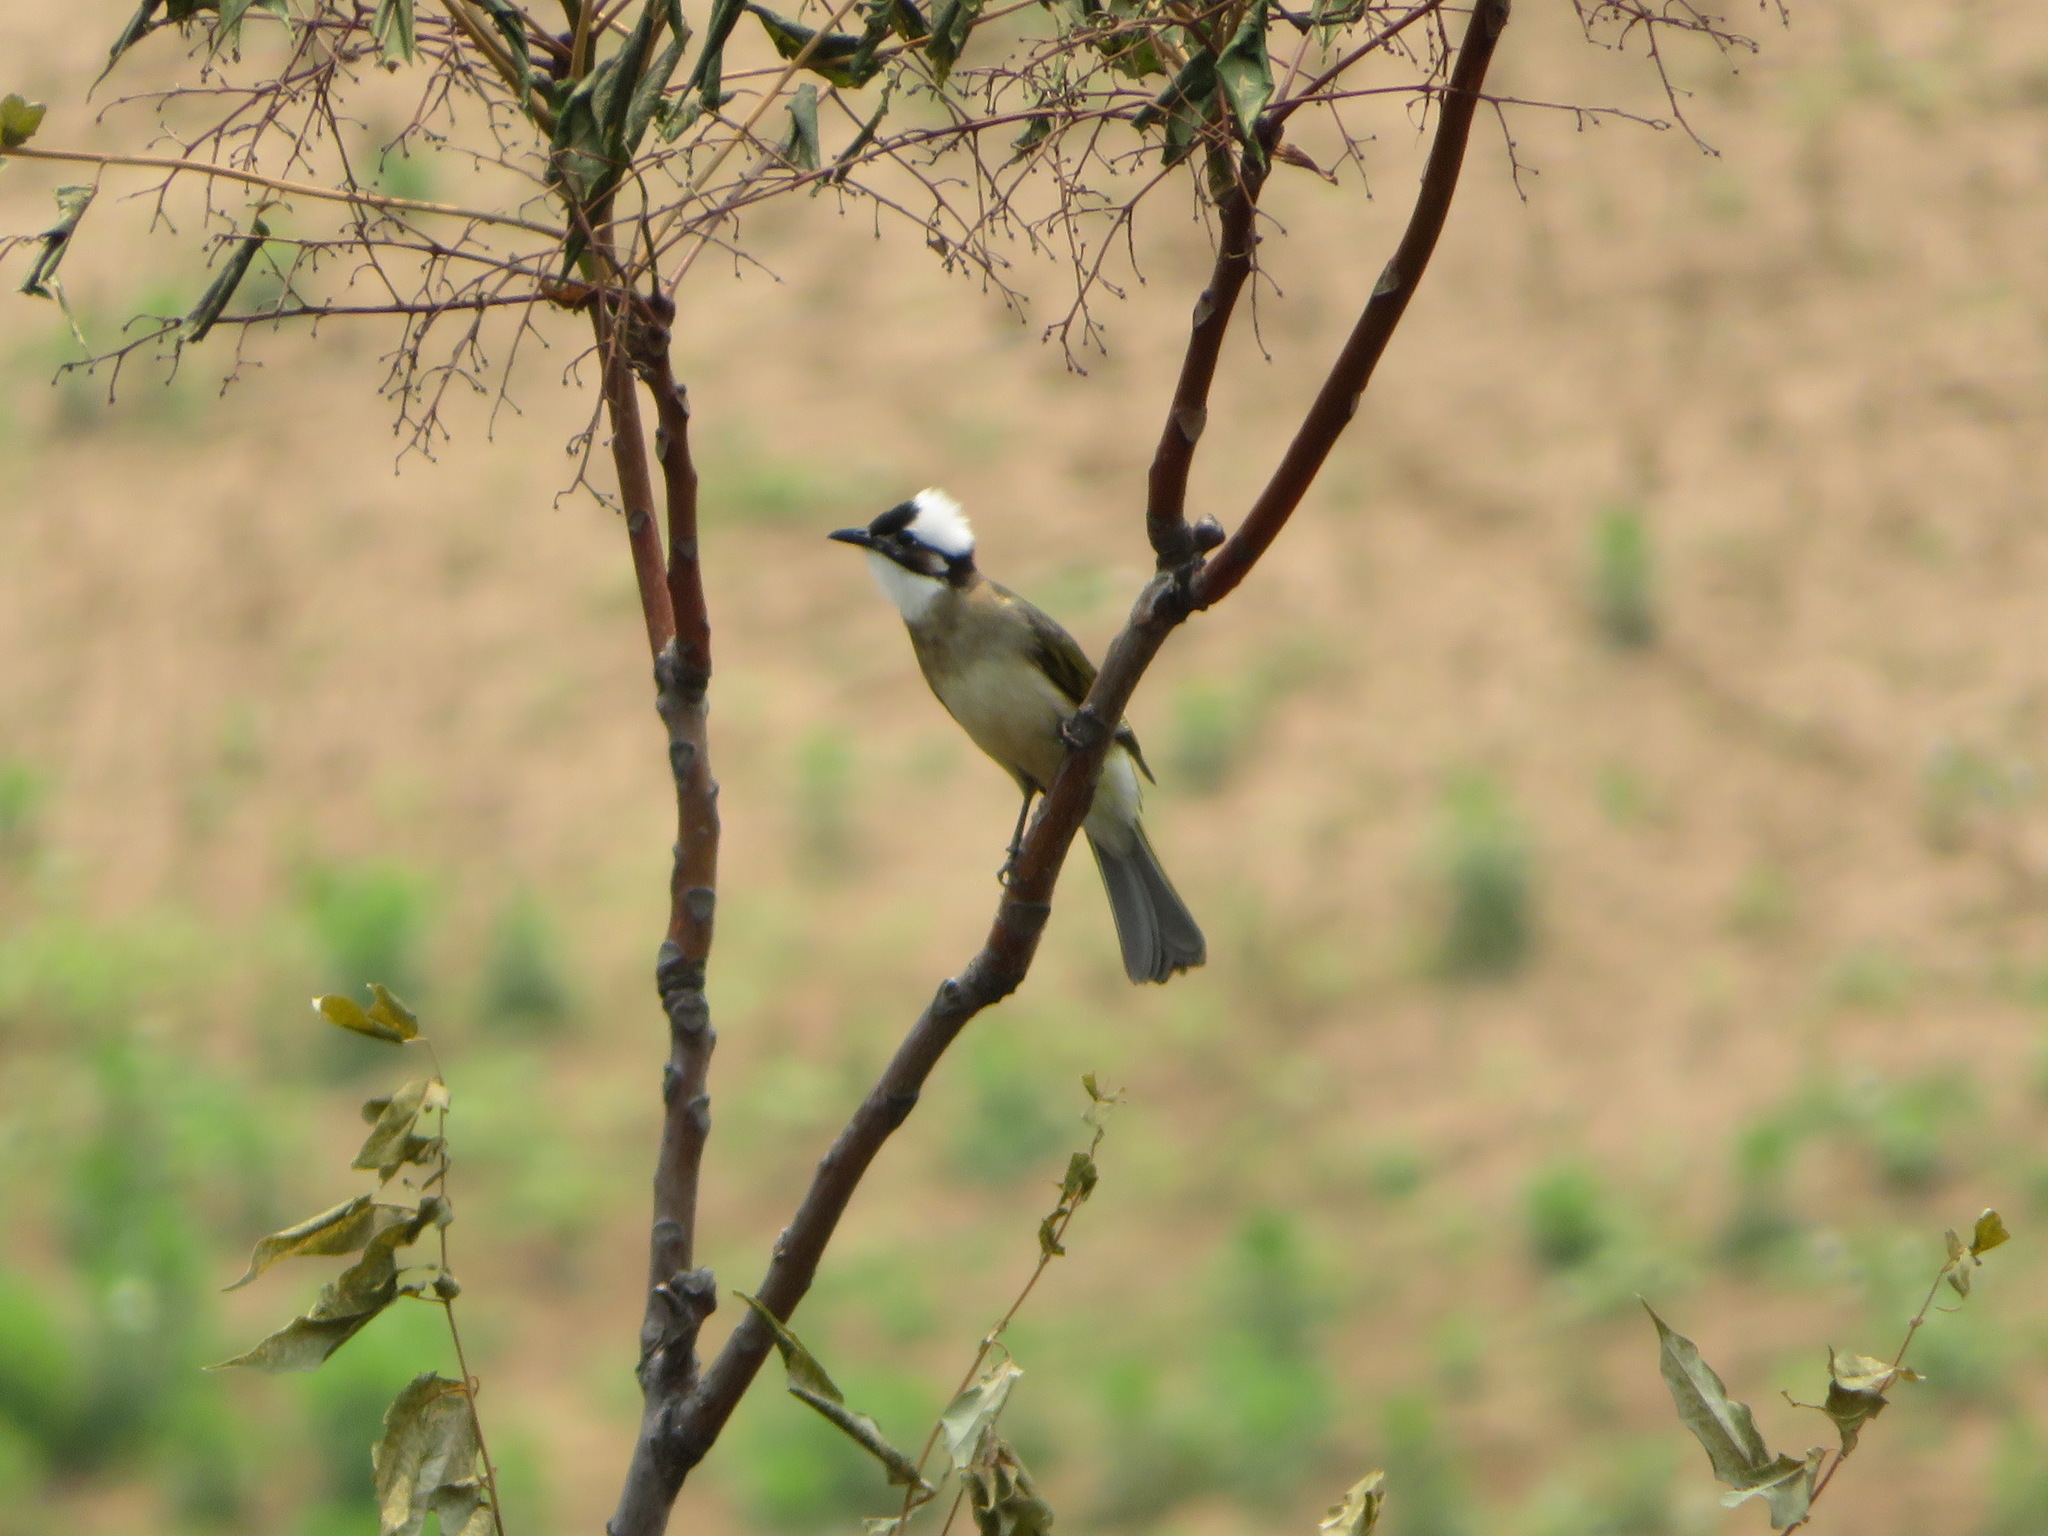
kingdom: Animalia
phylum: Chordata
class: Aves
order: Passeriformes
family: Pycnonotidae
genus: Pycnonotus
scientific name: Pycnonotus sinensis
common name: Light-vented bulbul
